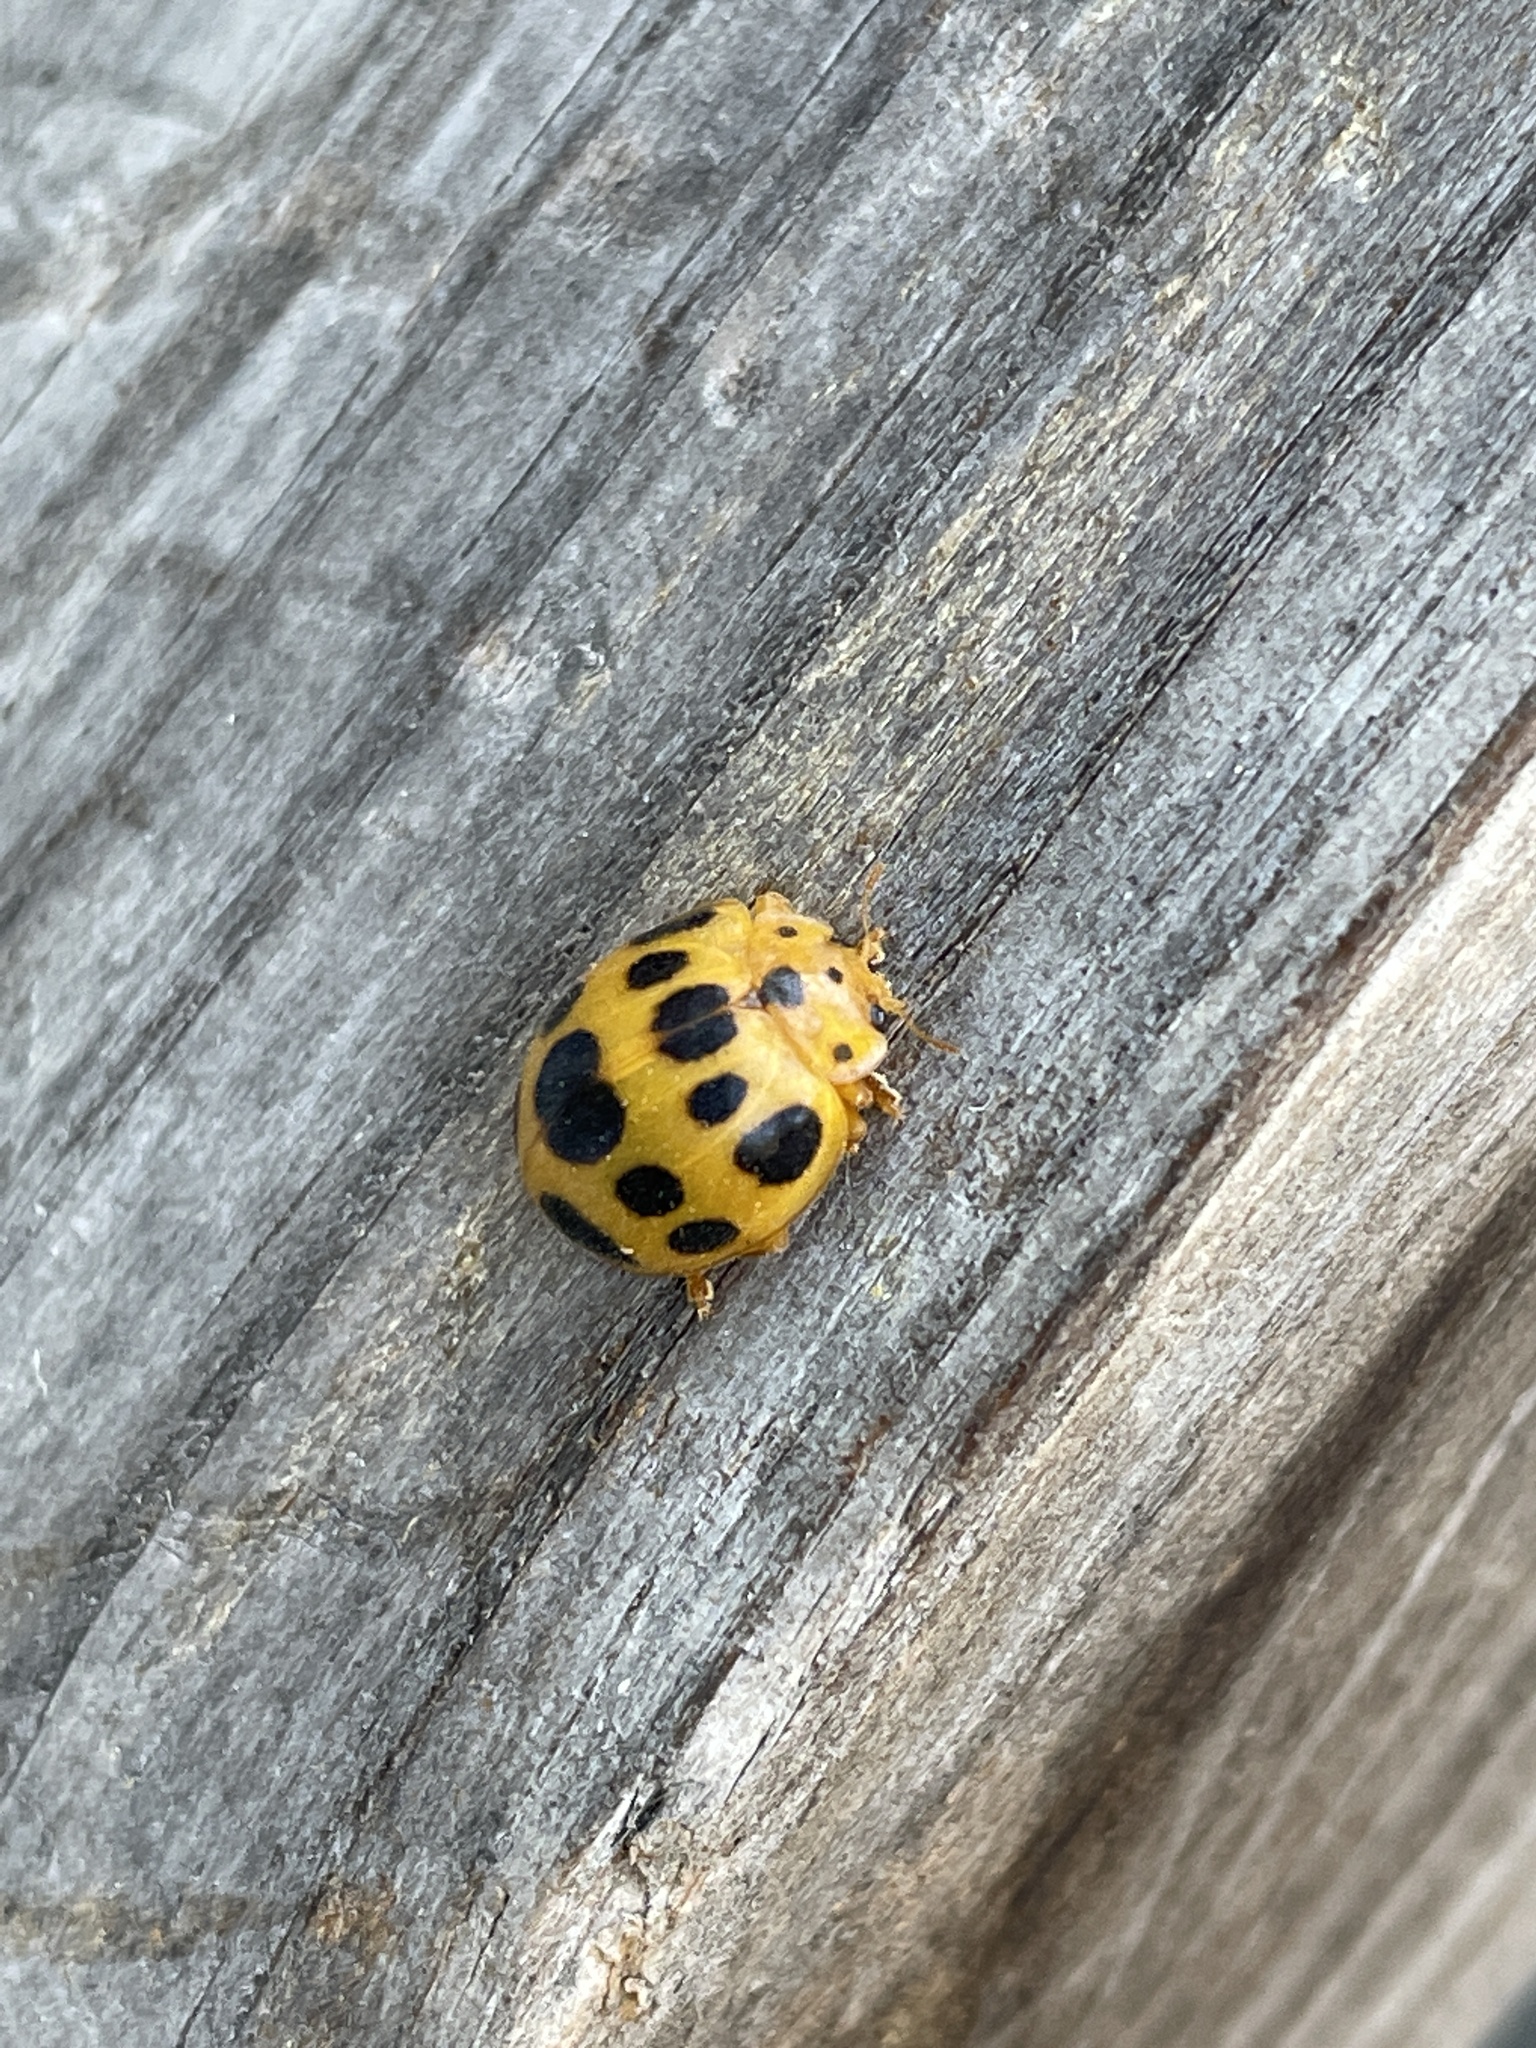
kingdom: Animalia
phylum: Arthropoda
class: Insecta
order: Coleoptera
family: Coccinellidae
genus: Epilachna
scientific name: Epilachna borealis
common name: Squash beetle
